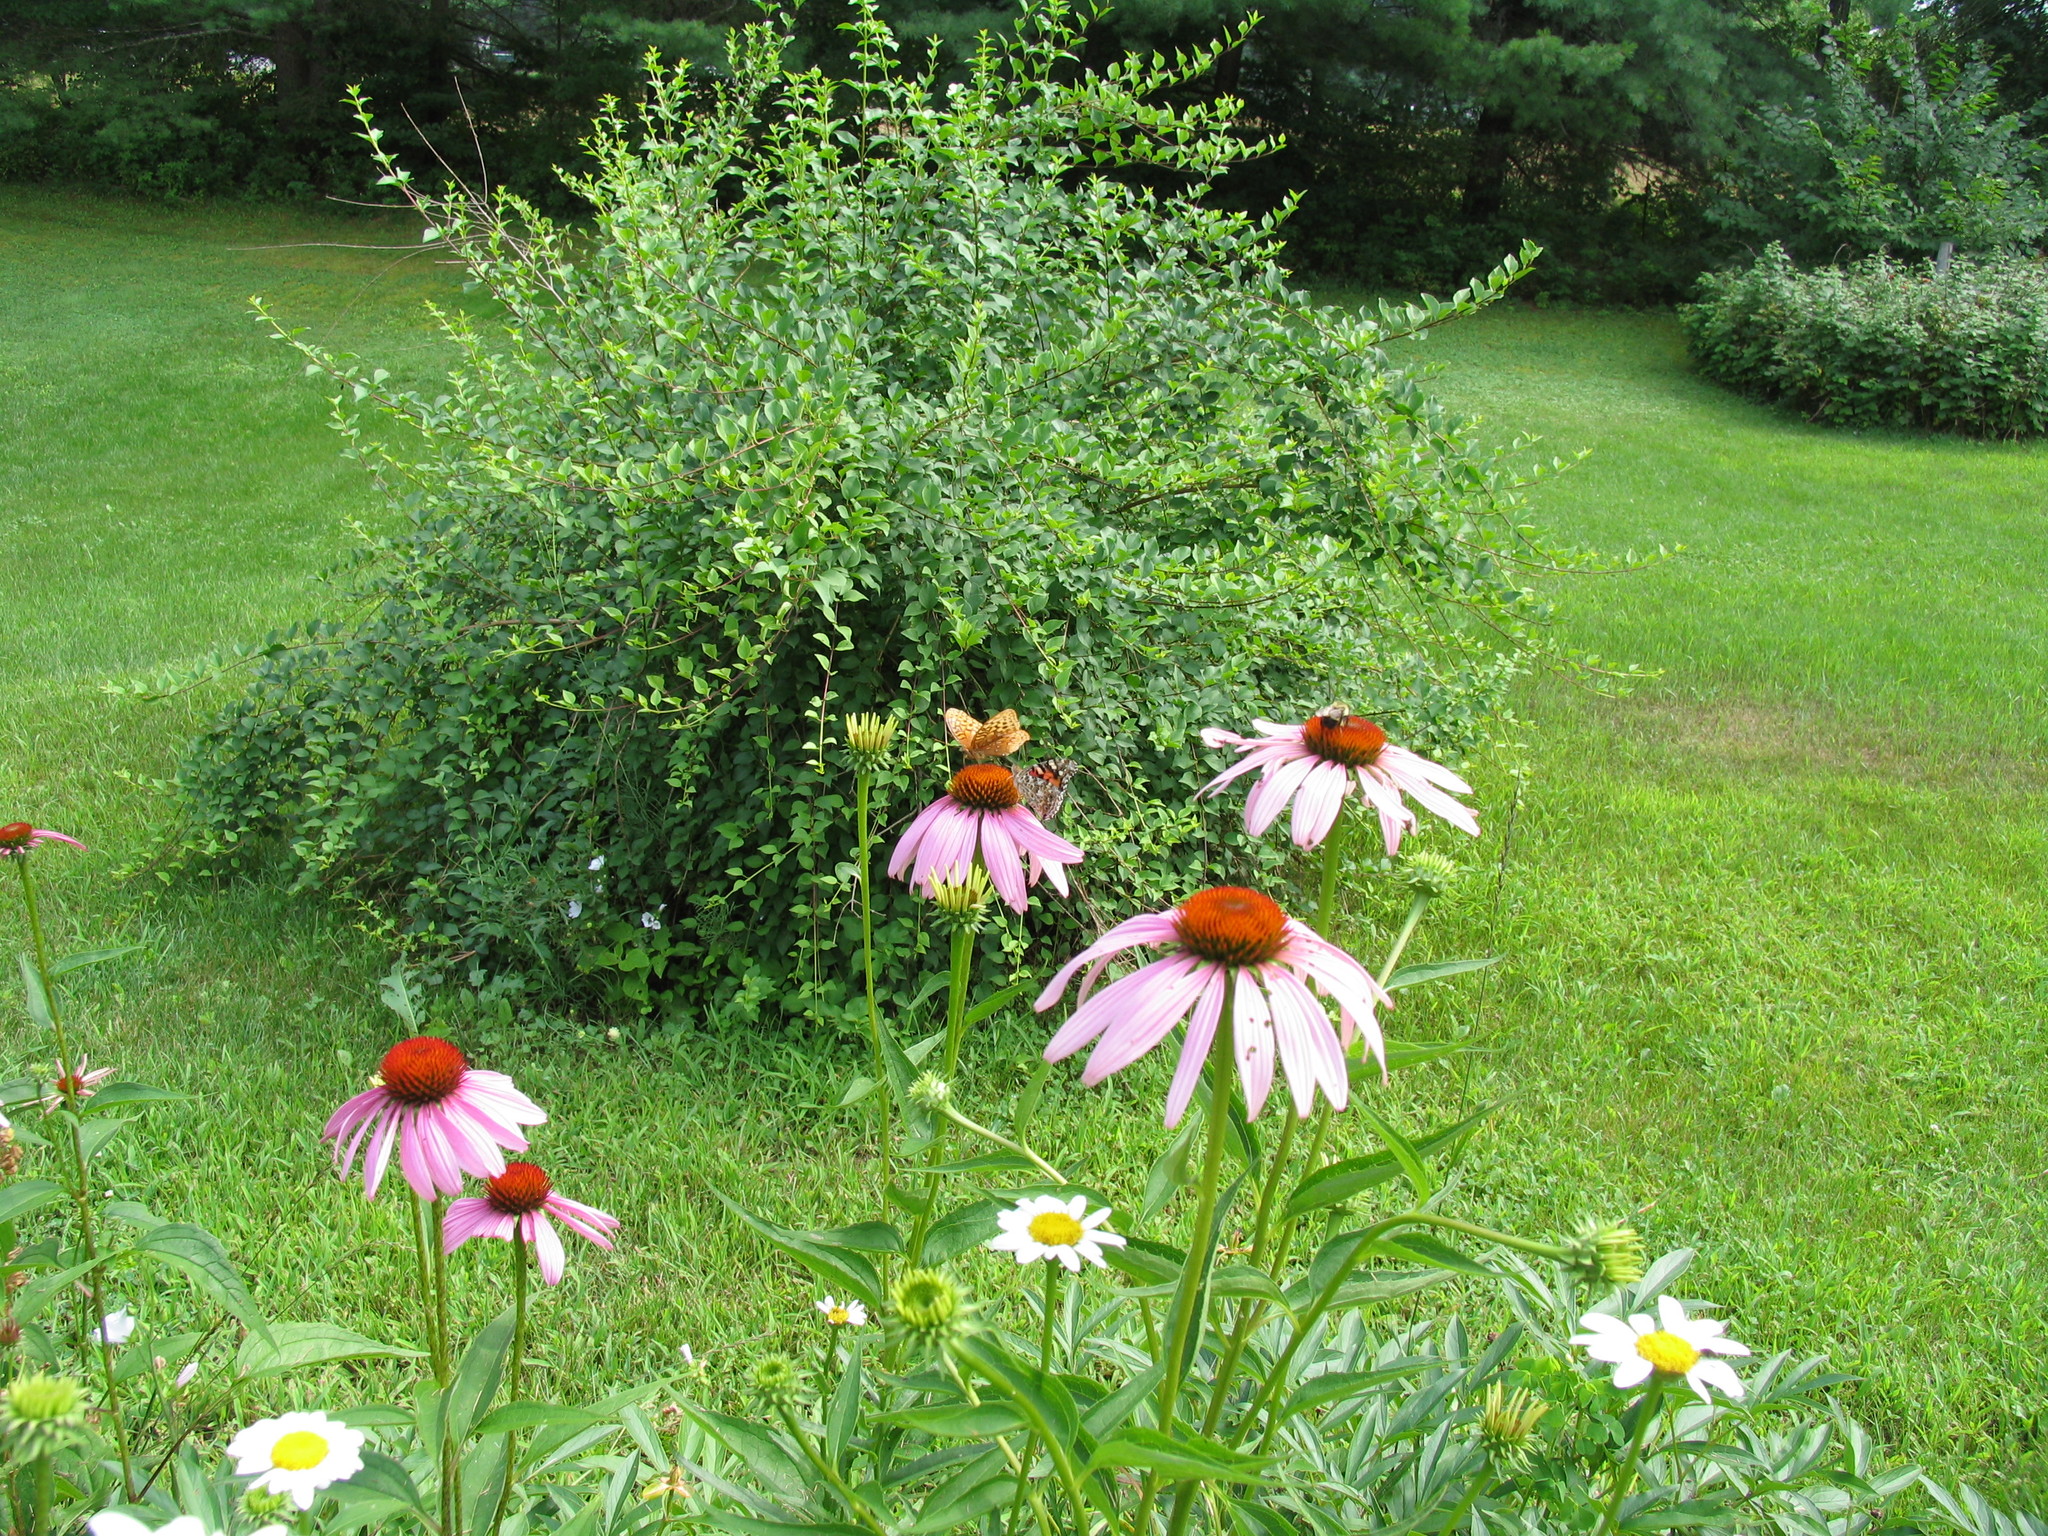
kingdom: Animalia
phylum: Arthropoda
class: Insecta
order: Lepidoptera
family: Nymphalidae
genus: Vanessa
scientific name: Vanessa cardui
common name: Painted lady
